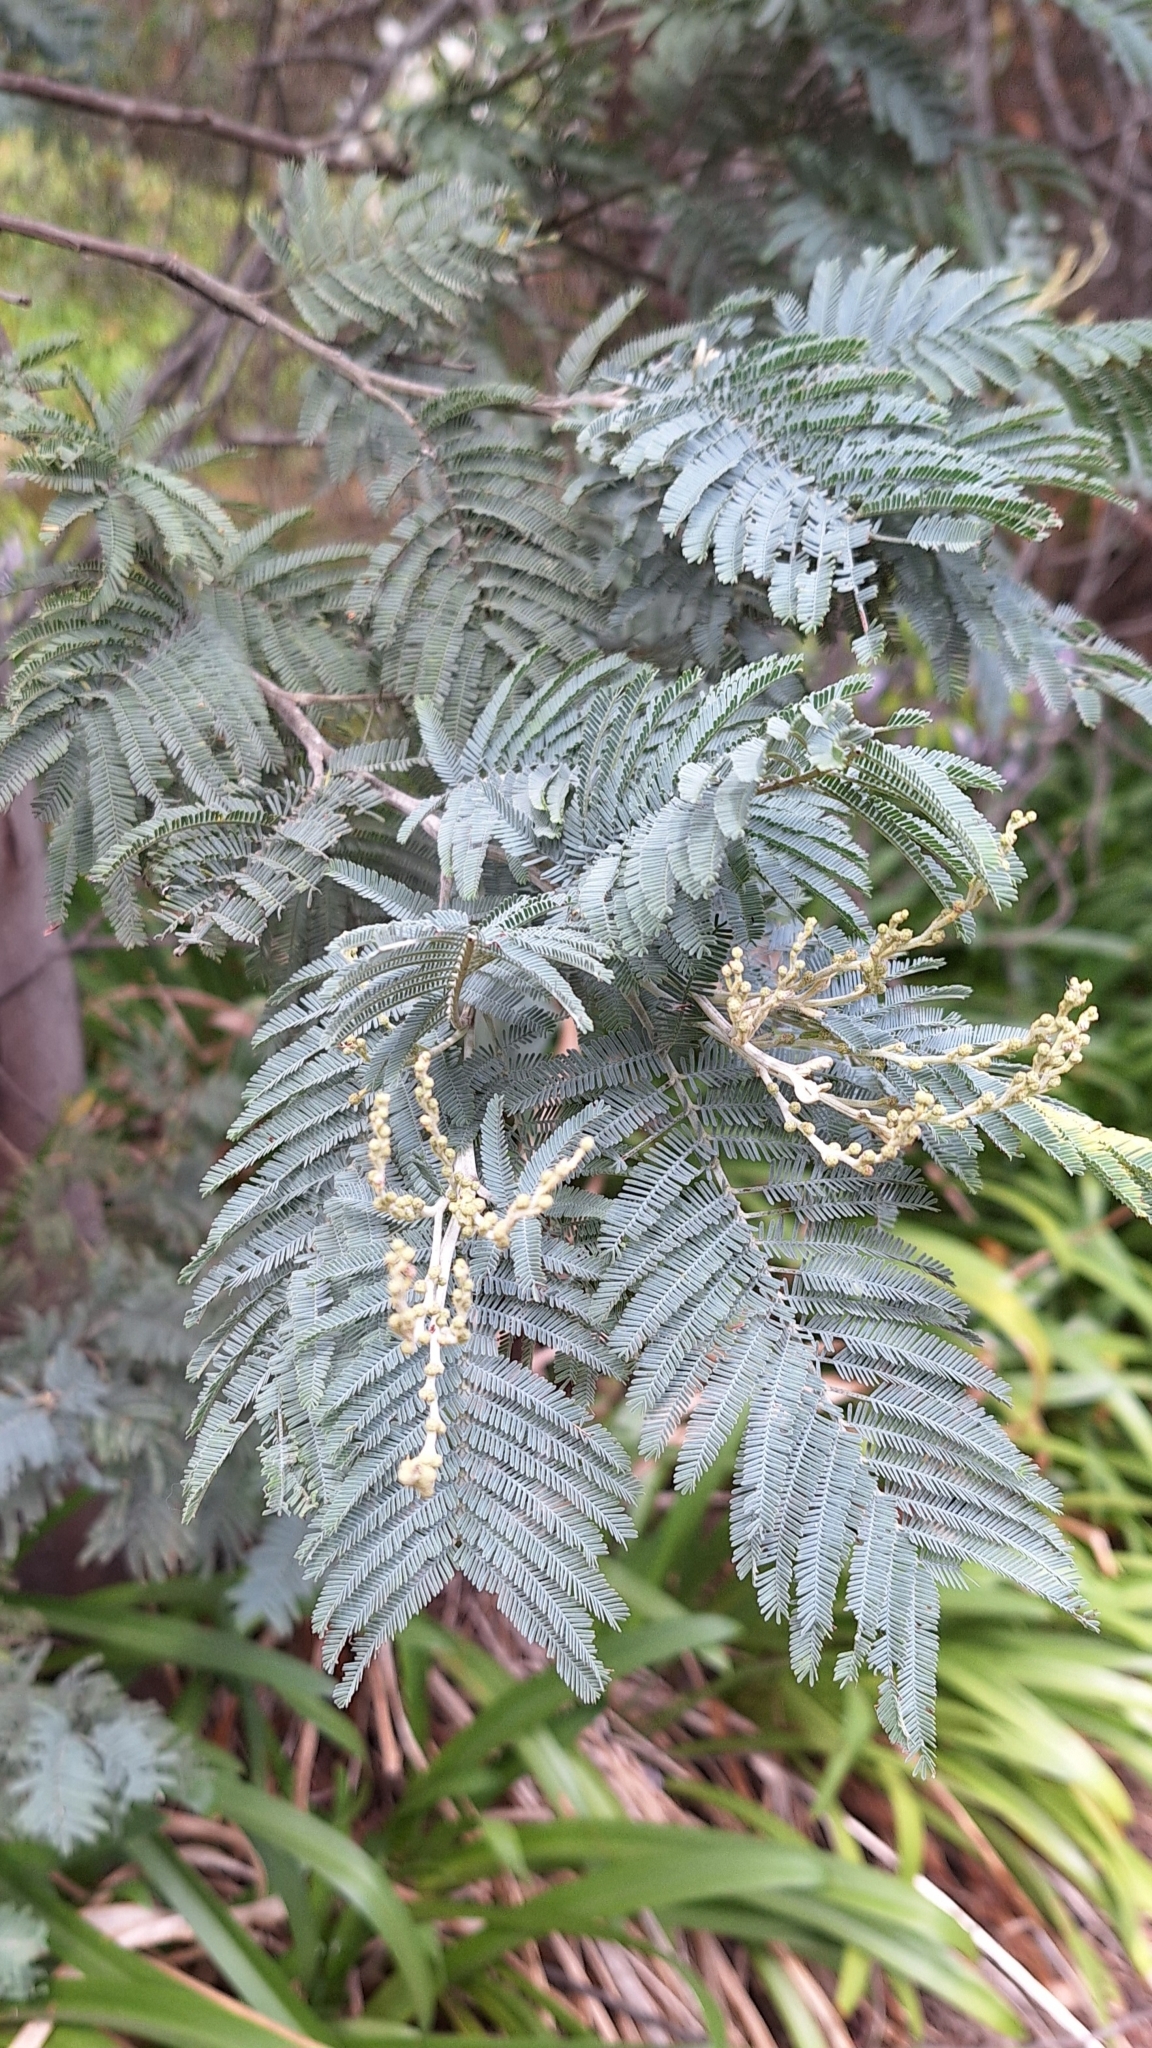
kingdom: Plantae
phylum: Tracheophyta
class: Magnoliopsida
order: Fabales
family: Fabaceae
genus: Acacia
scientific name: Acacia dealbata
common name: Silver wattle
